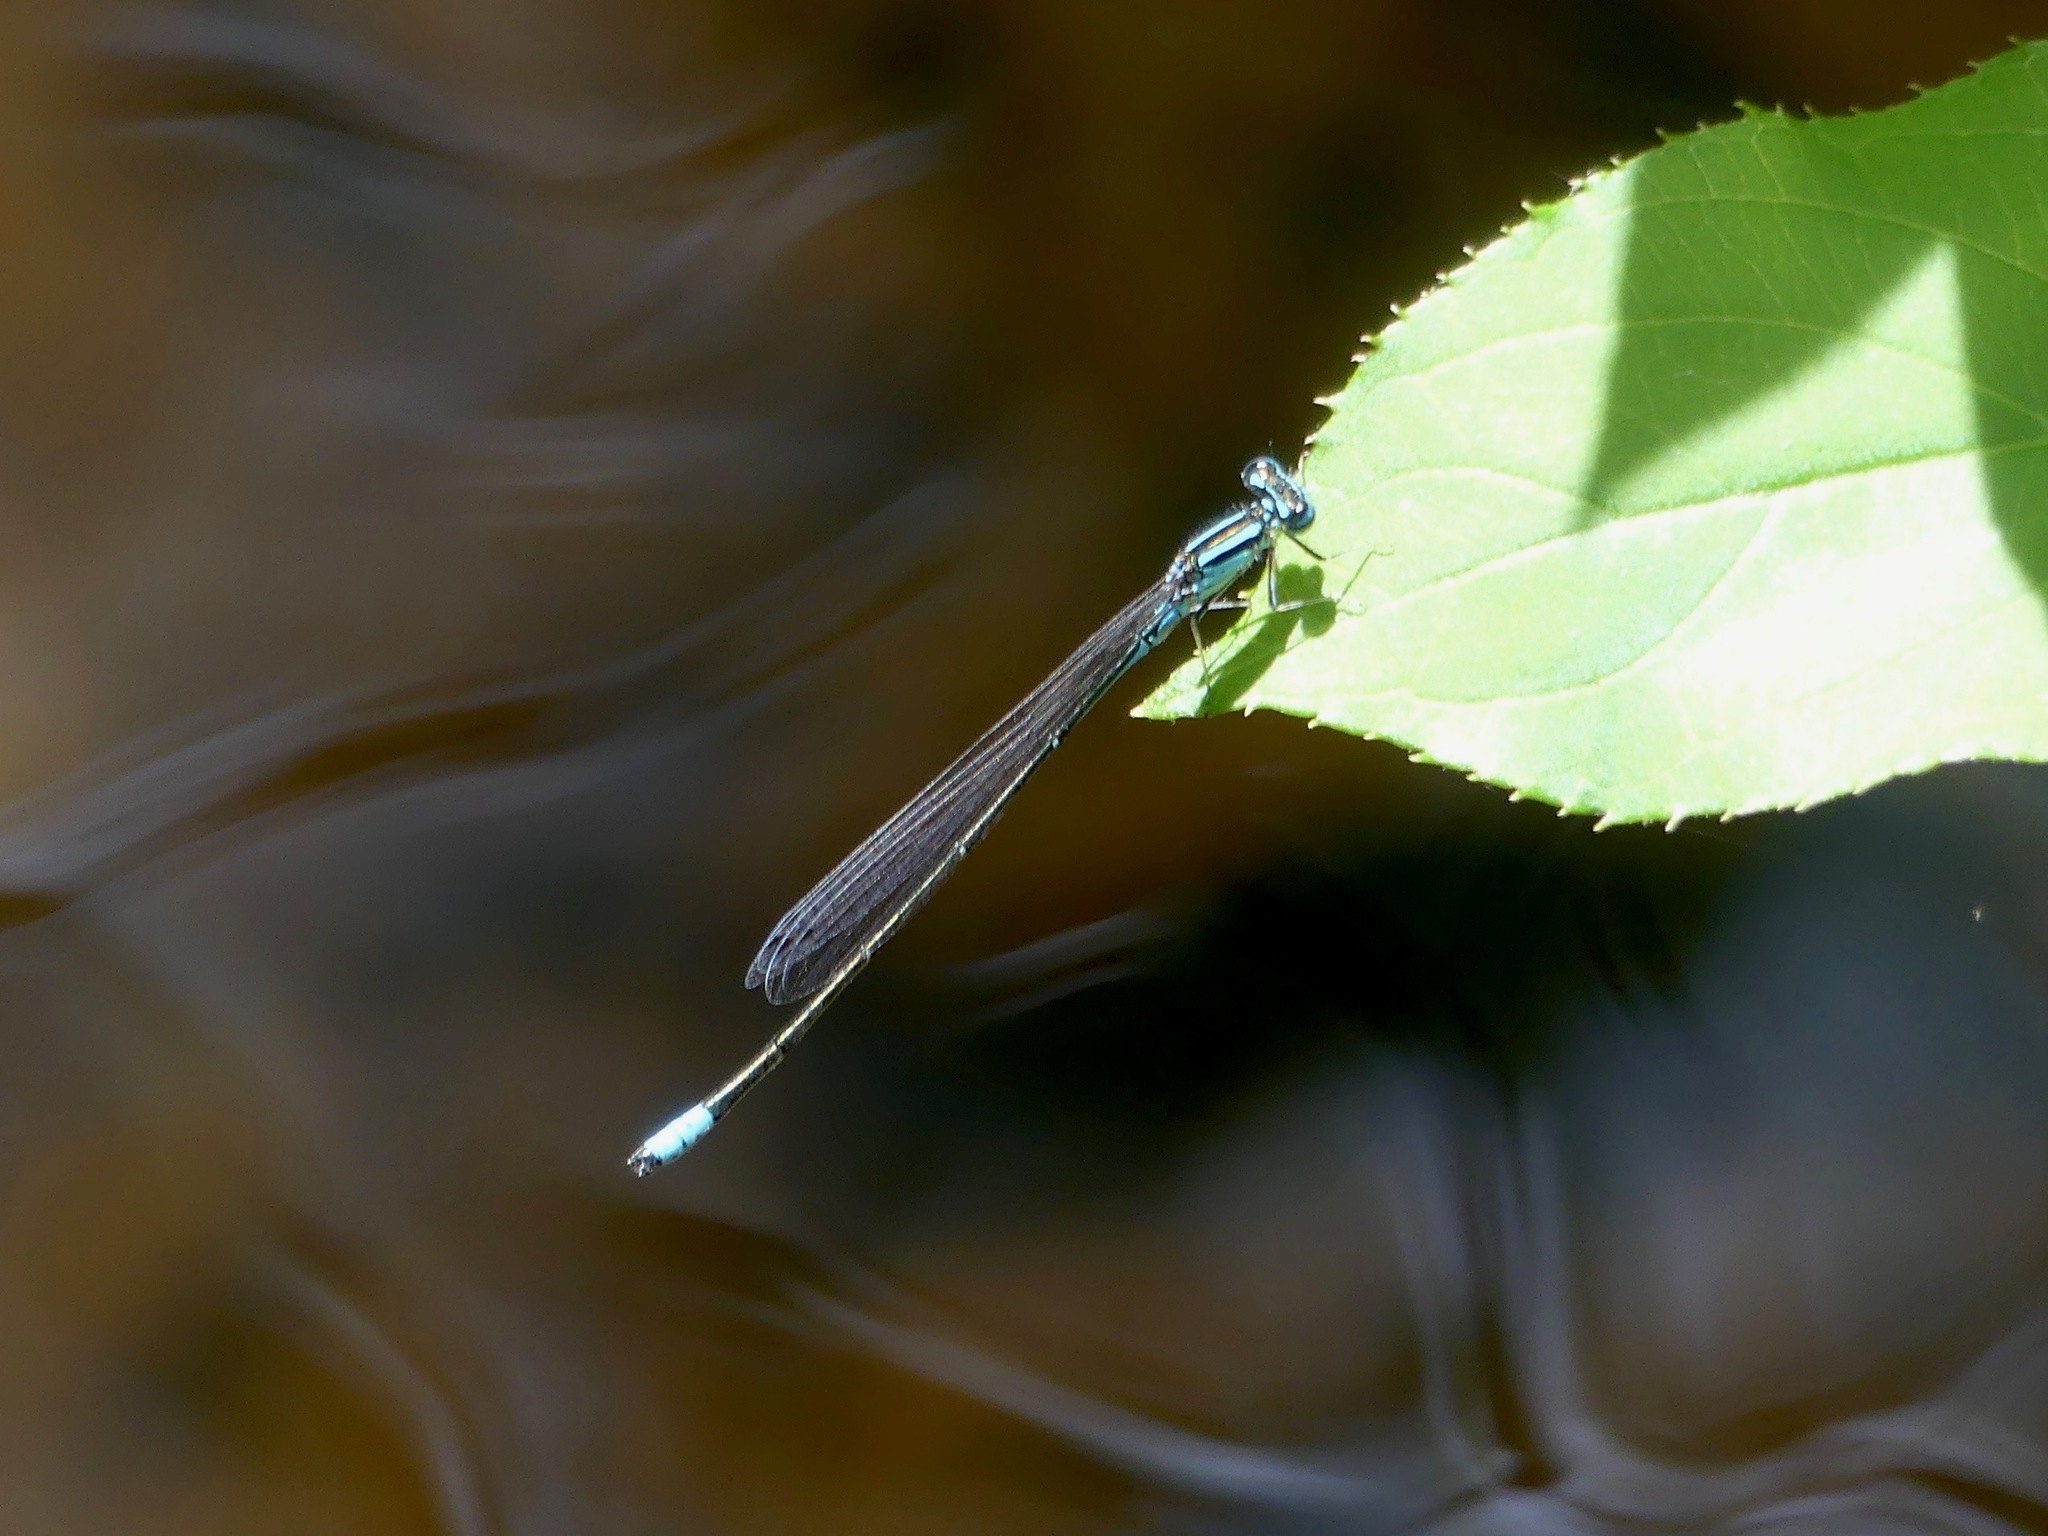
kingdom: Animalia
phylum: Arthropoda
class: Insecta
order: Odonata
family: Coenagrionidae
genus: Enallagma
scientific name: Enallagma divagans
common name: Turquoise bluet
